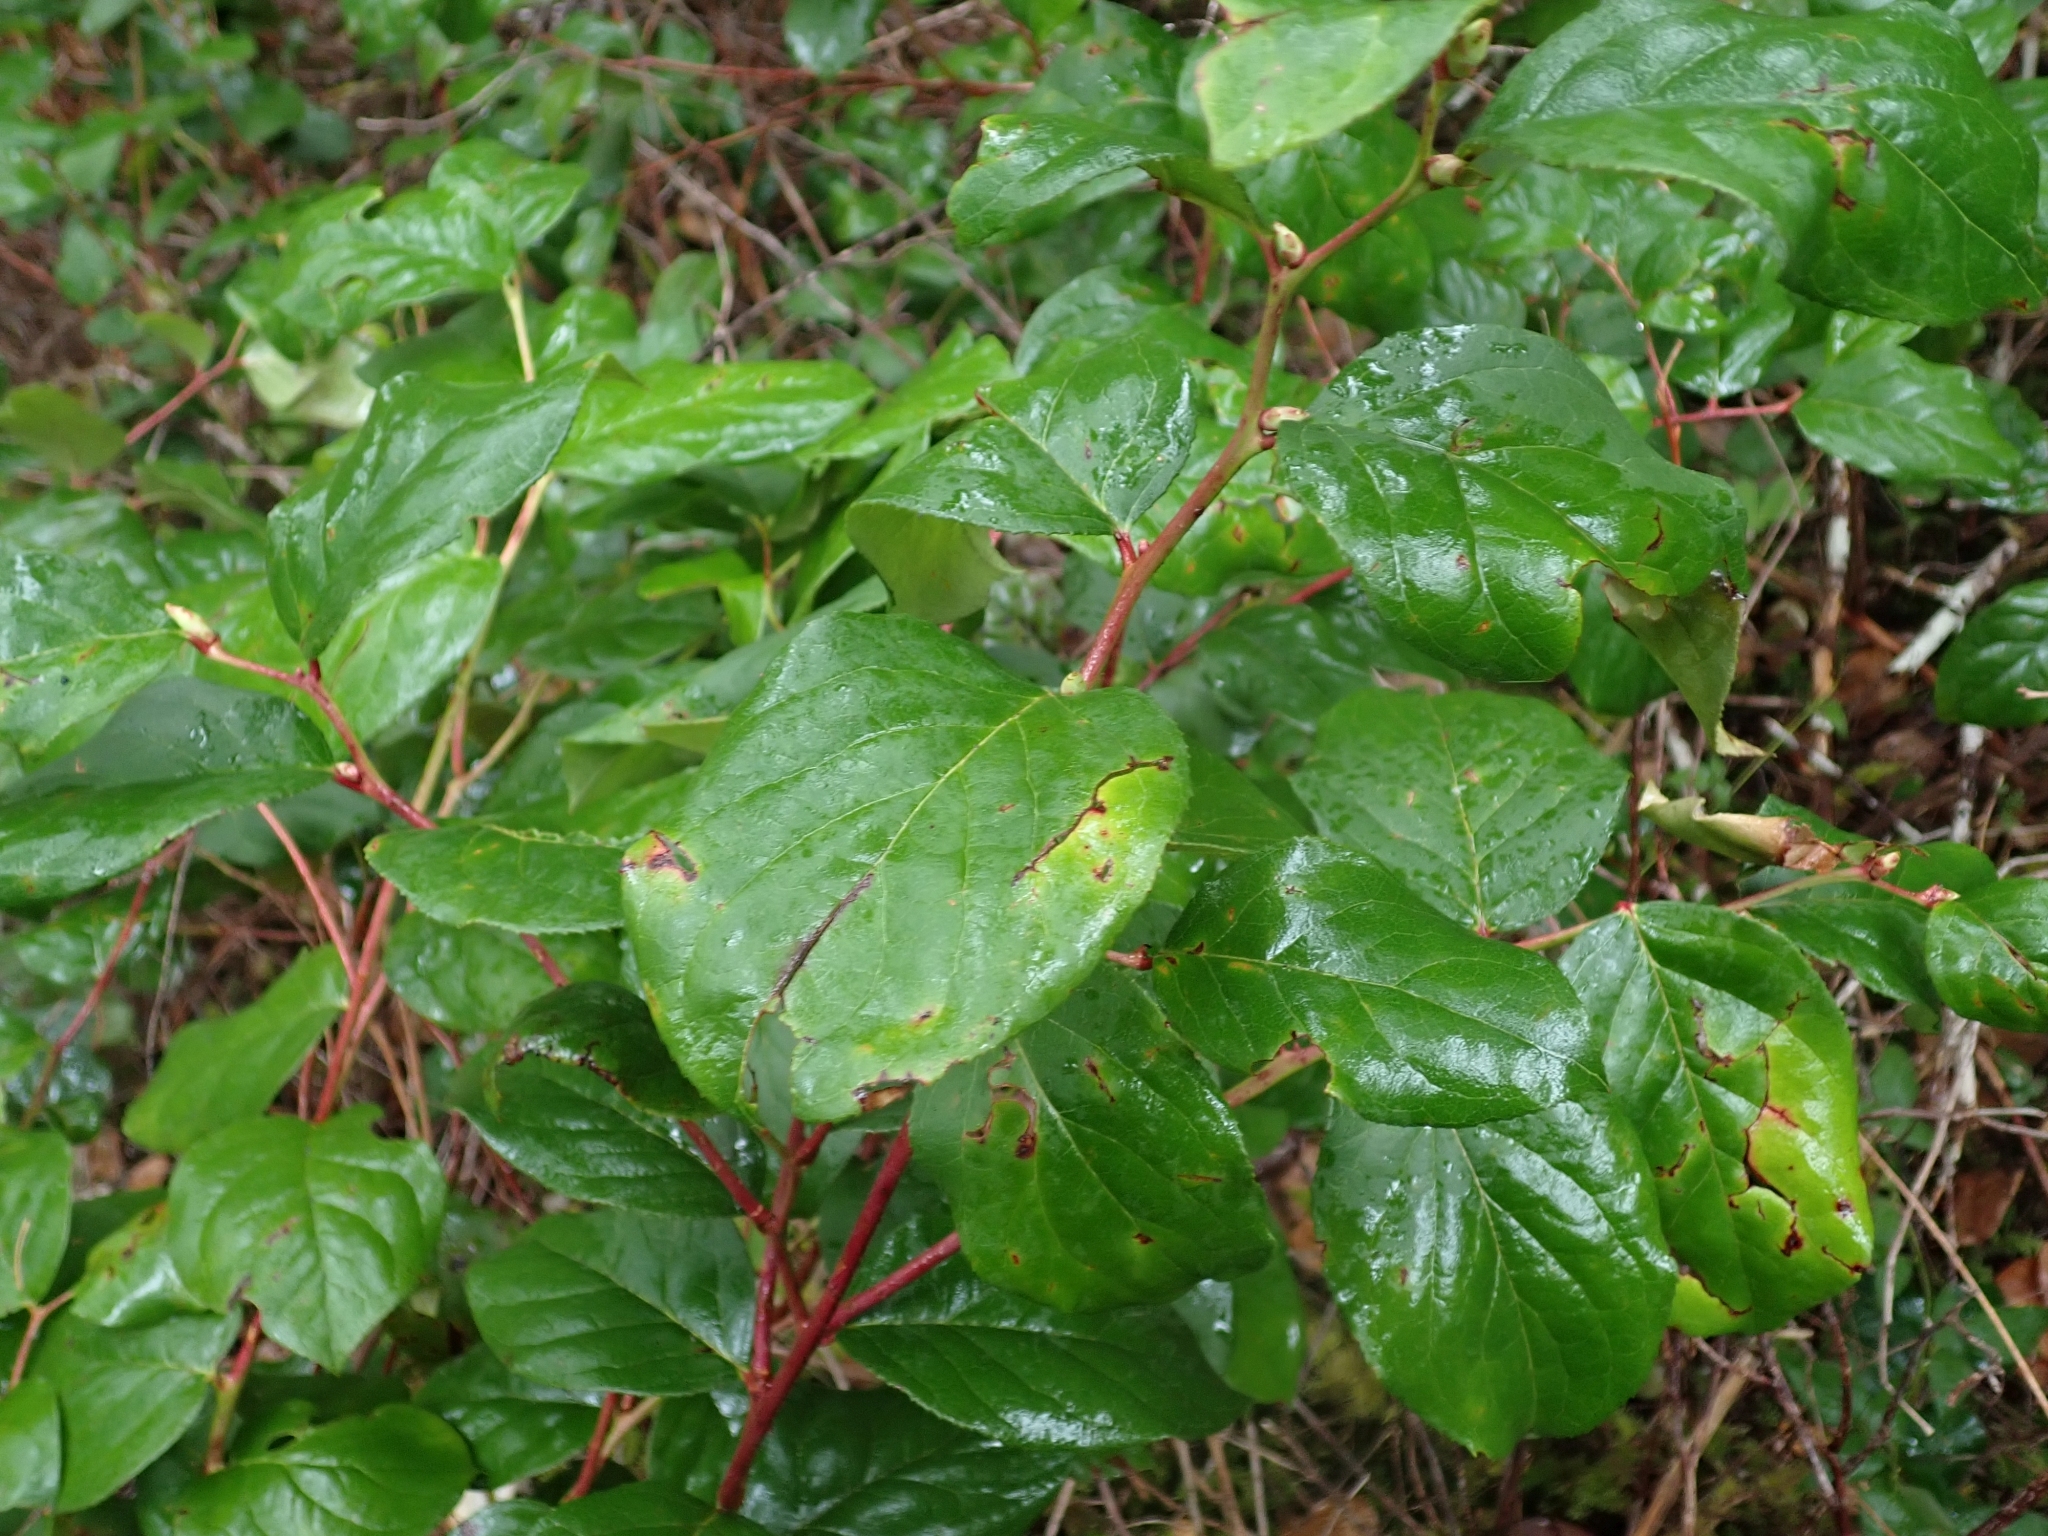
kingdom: Plantae
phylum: Tracheophyta
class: Magnoliopsida
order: Ericales
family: Ericaceae
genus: Gaultheria
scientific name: Gaultheria shallon
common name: Shallon
